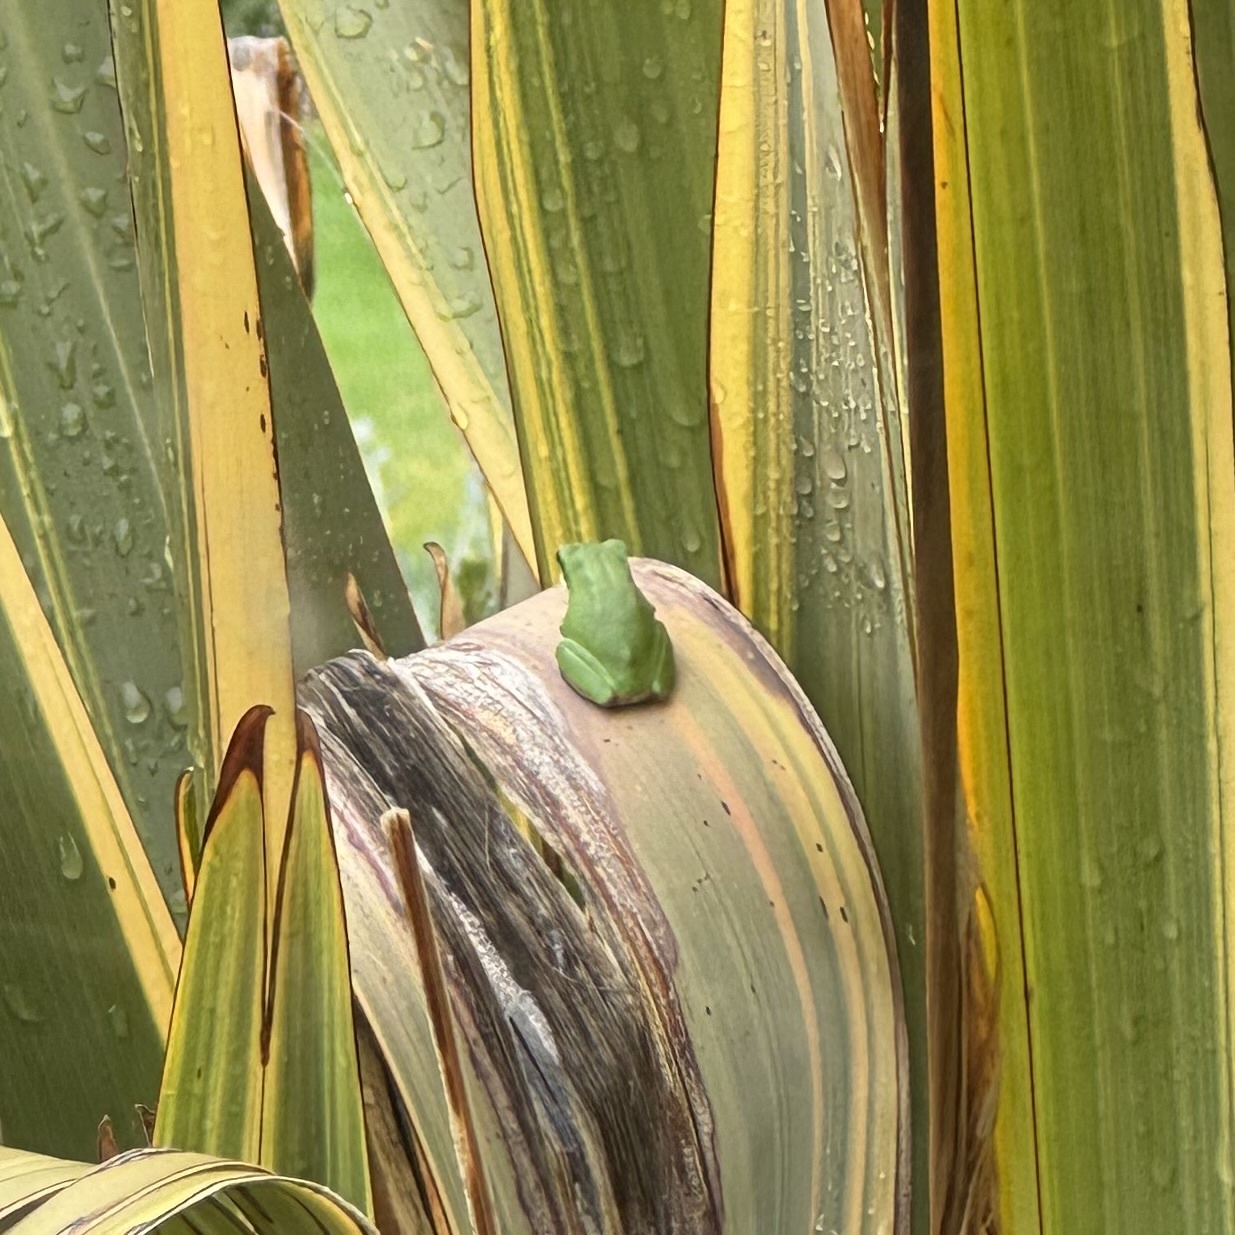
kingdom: Animalia
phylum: Chordata
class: Amphibia
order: Anura
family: Pelodryadidae
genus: Litoria
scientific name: Litoria fallax
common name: Eastern dwarf treefrog
